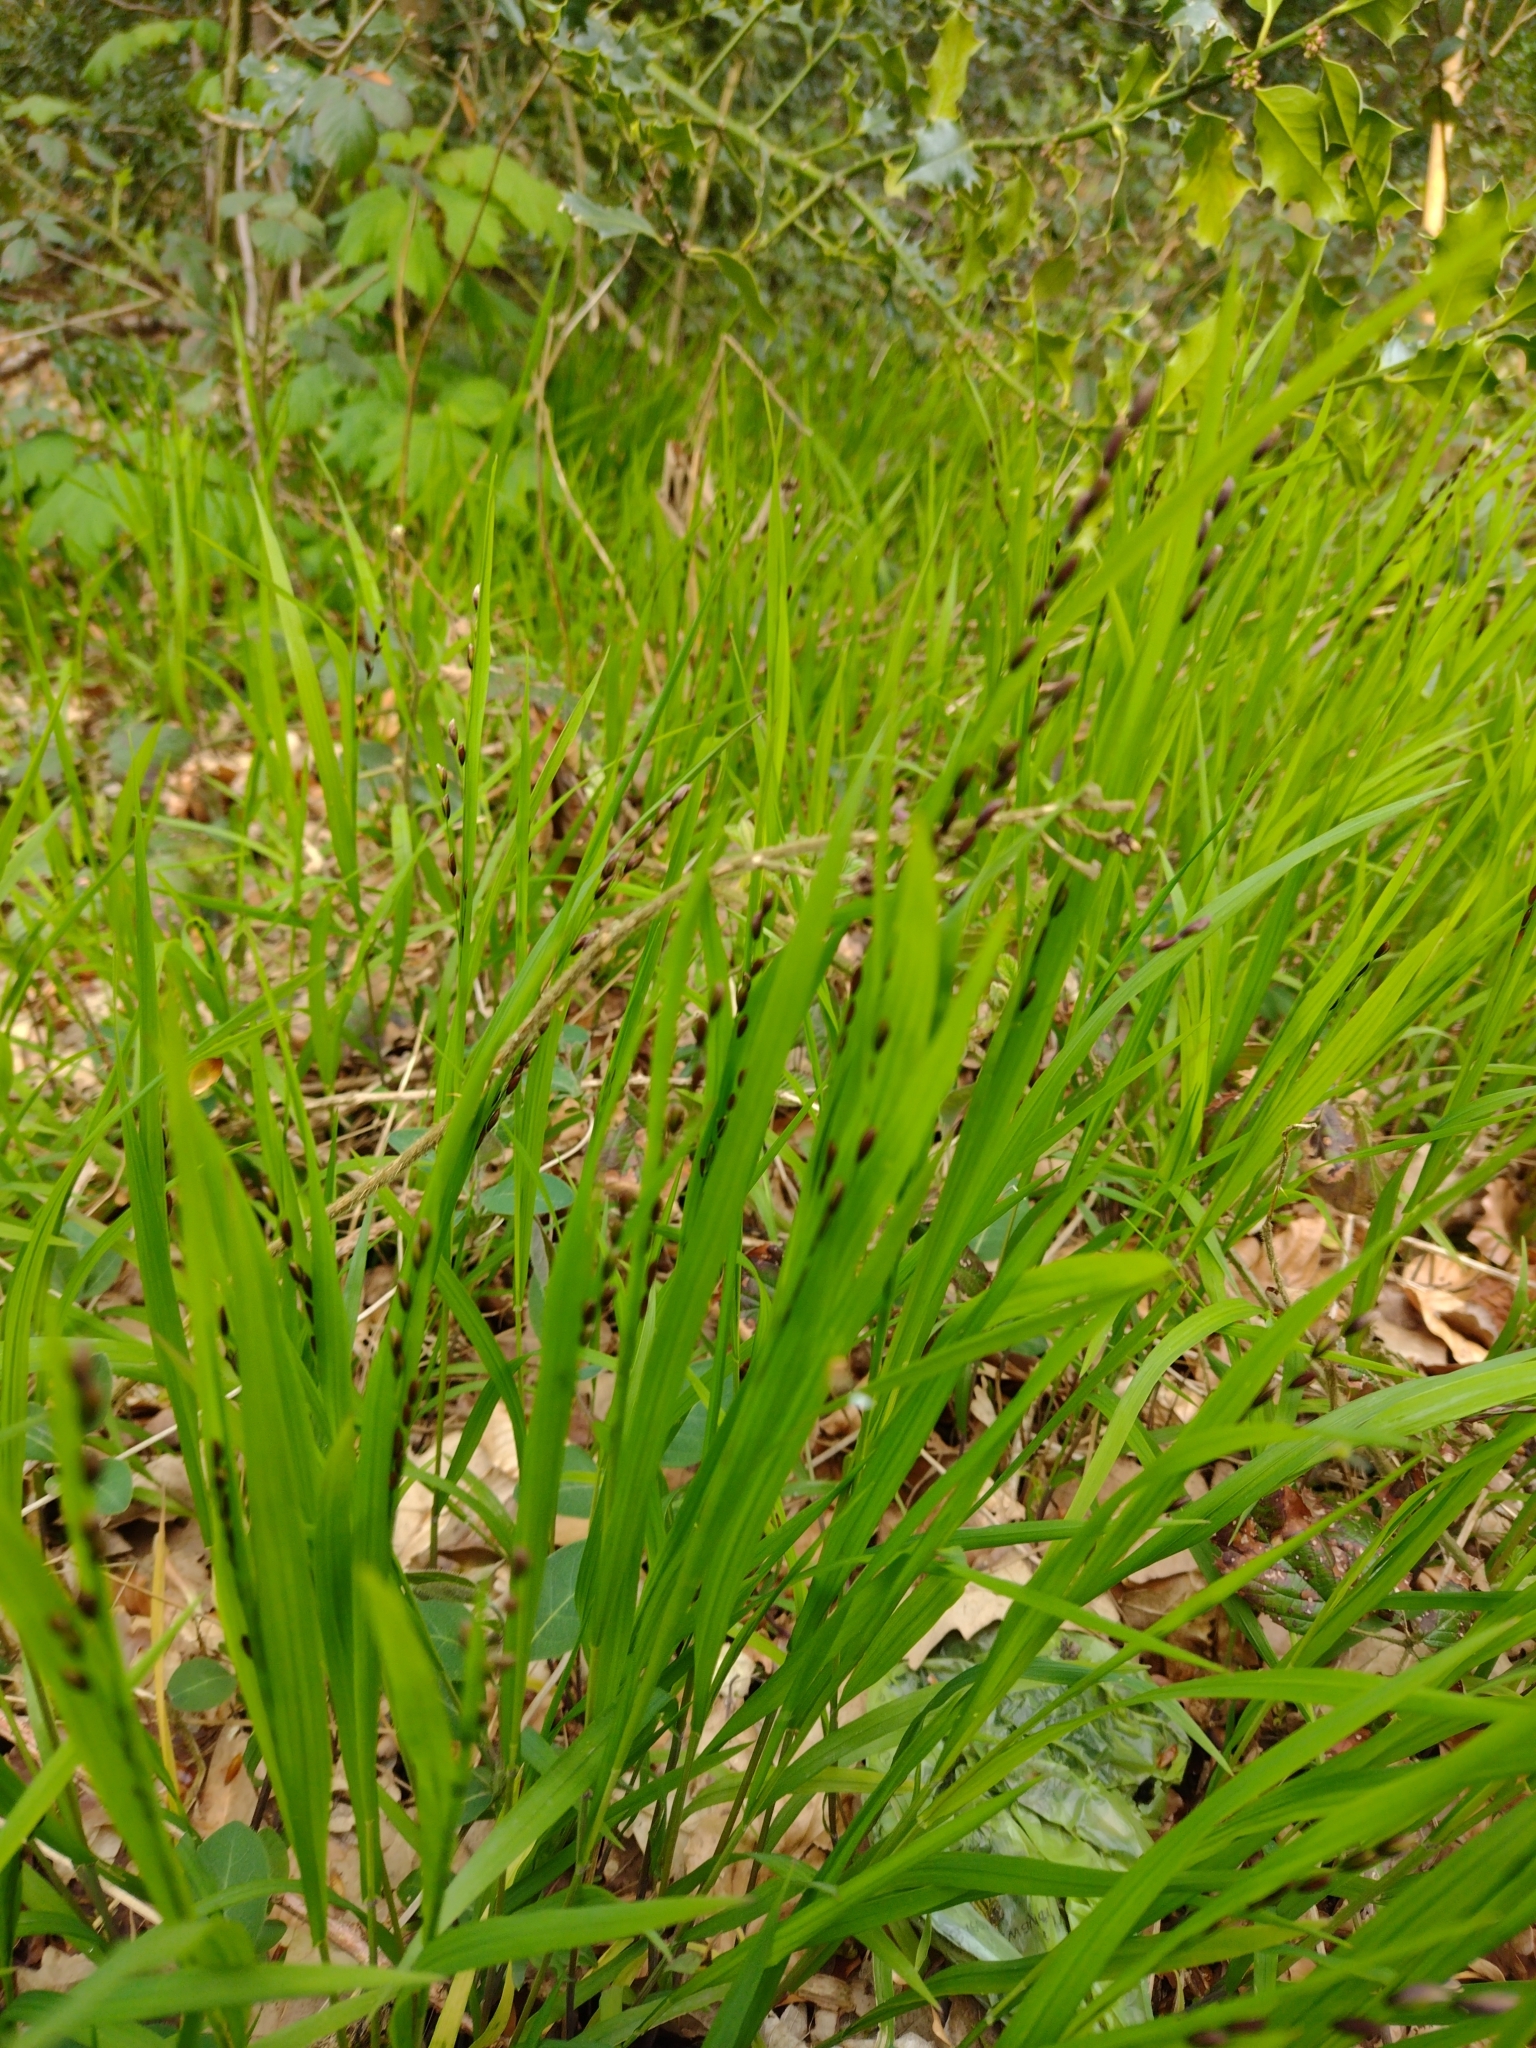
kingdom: Plantae
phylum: Tracheophyta
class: Liliopsida
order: Poales
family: Poaceae
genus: Melica
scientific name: Melica uniflora
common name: Wood melick
